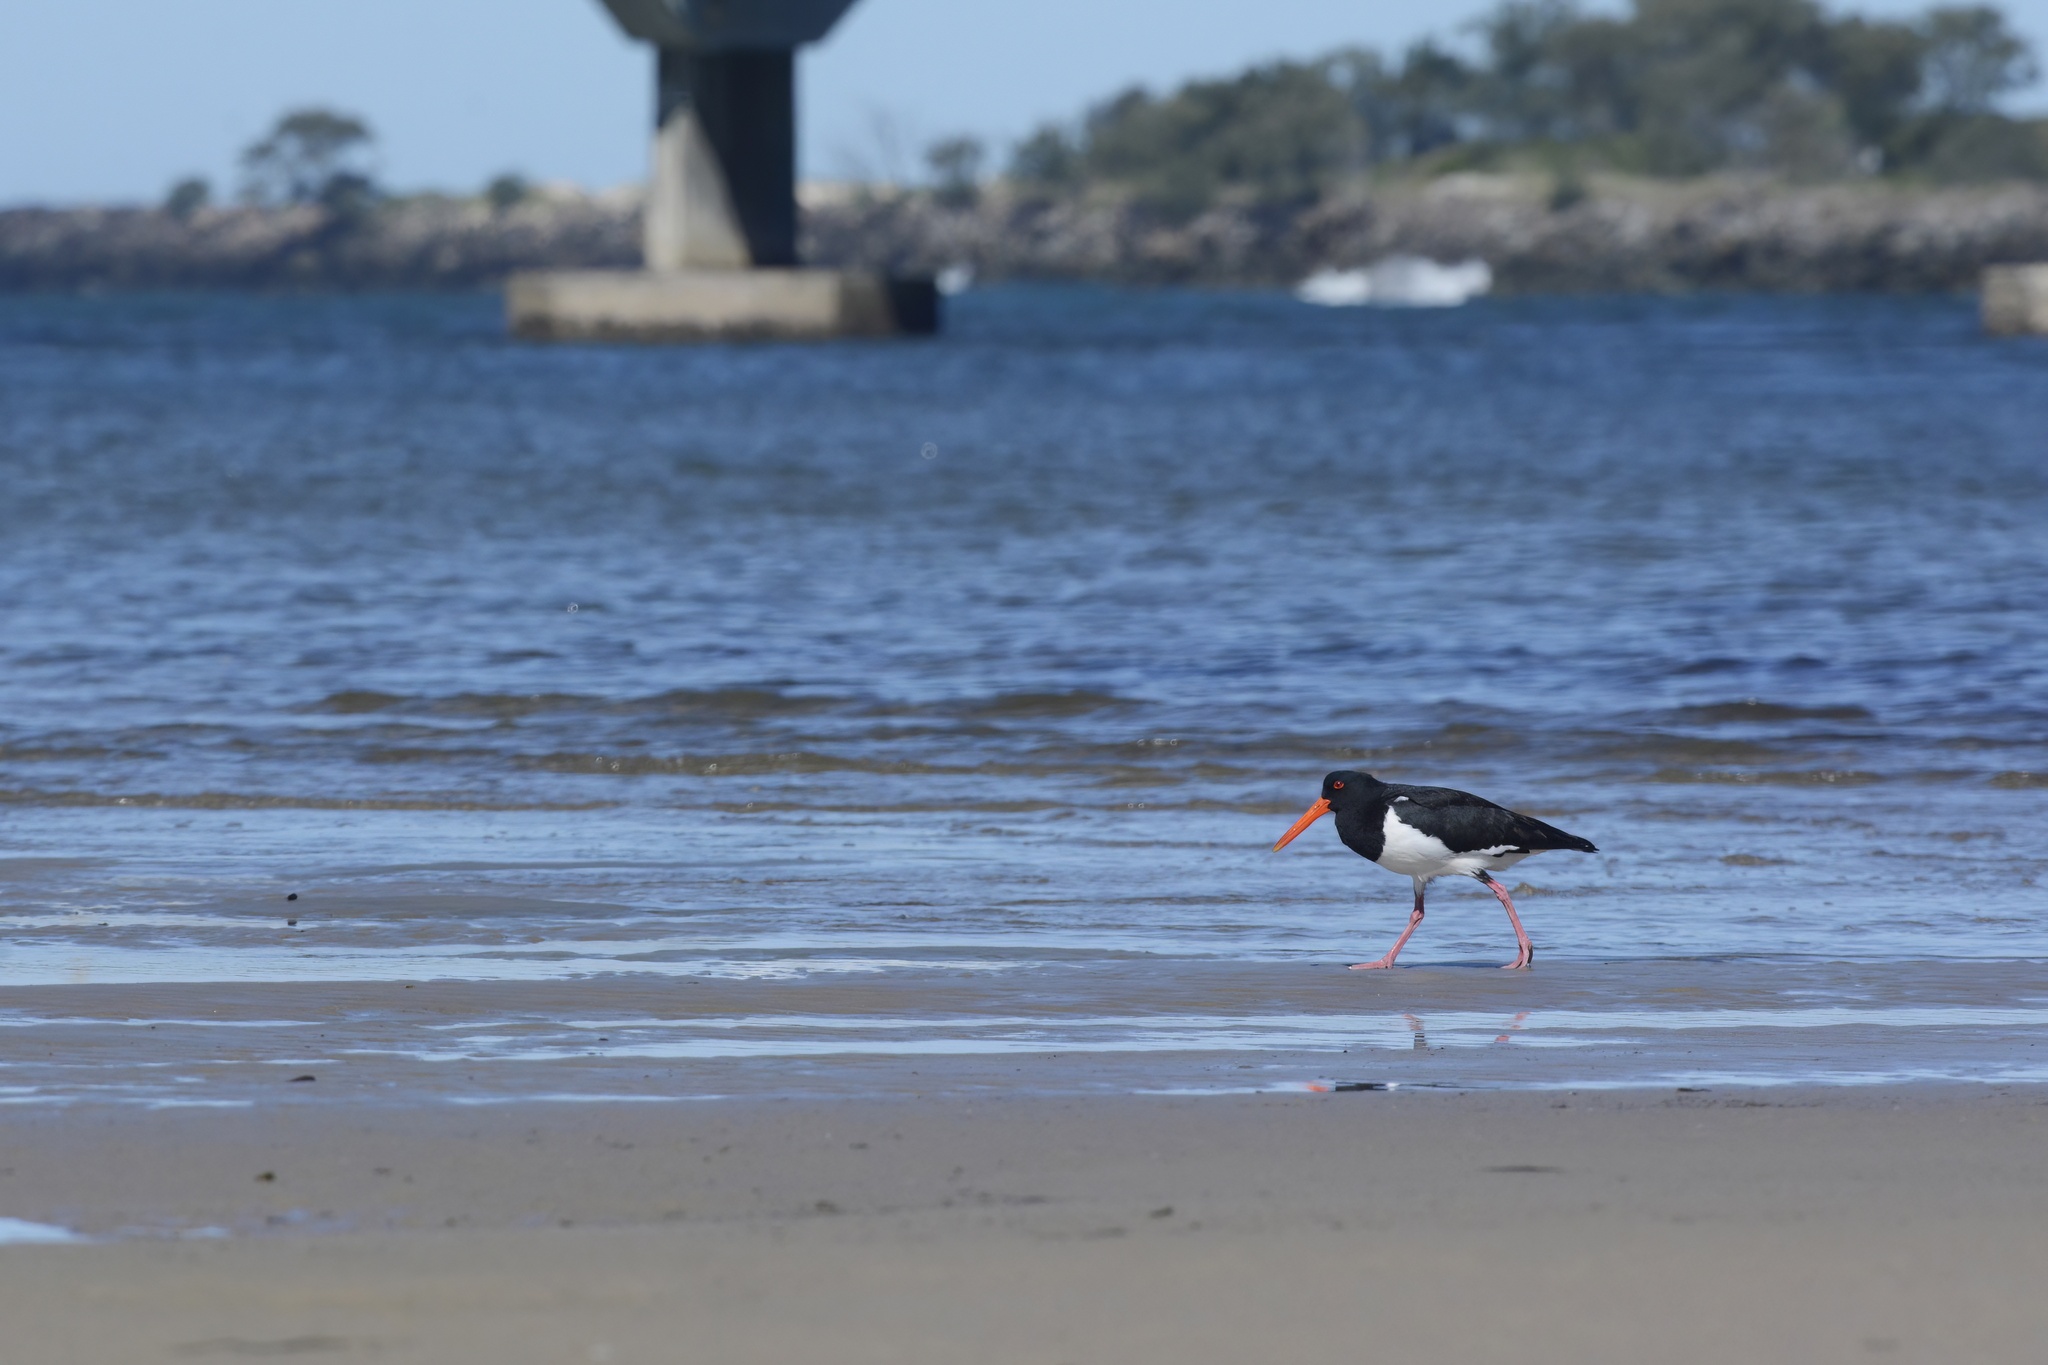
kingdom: Animalia
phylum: Chordata
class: Aves
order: Charadriiformes
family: Haematopodidae
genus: Haematopus
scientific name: Haematopus longirostris
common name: Pied oystercatcher
